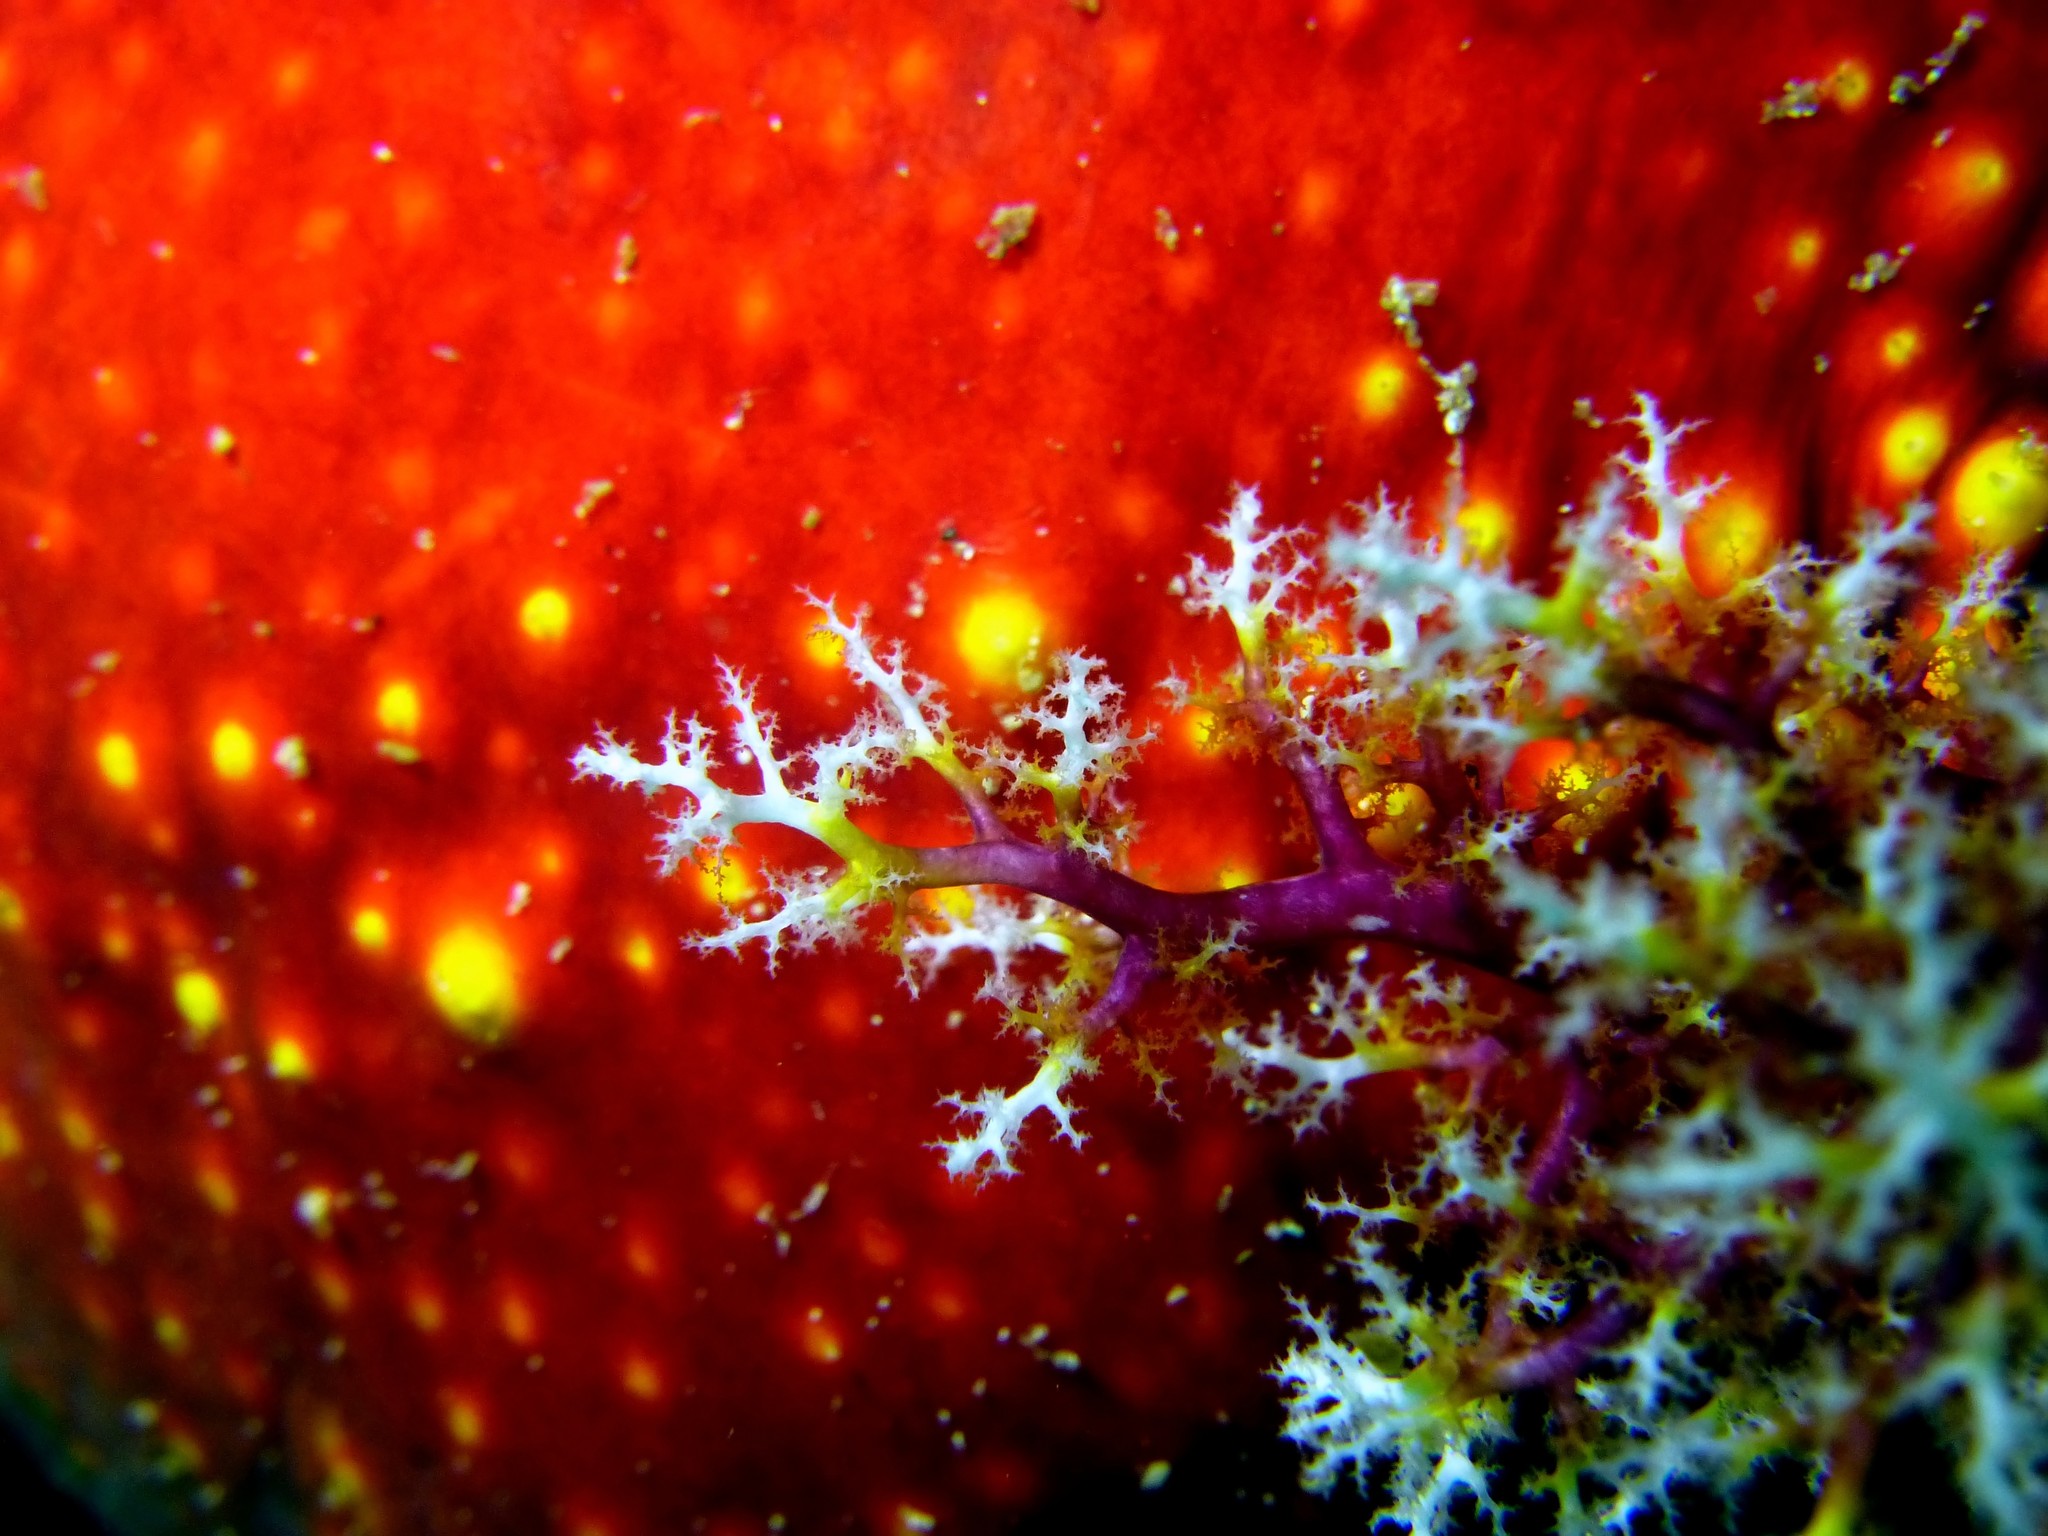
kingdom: Animalia
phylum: Echinodermata
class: Holothuroidea
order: Dendrochirotida
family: Cucumariidae
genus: Pseudocolochirus
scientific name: Pseudocolochirus violaceus
